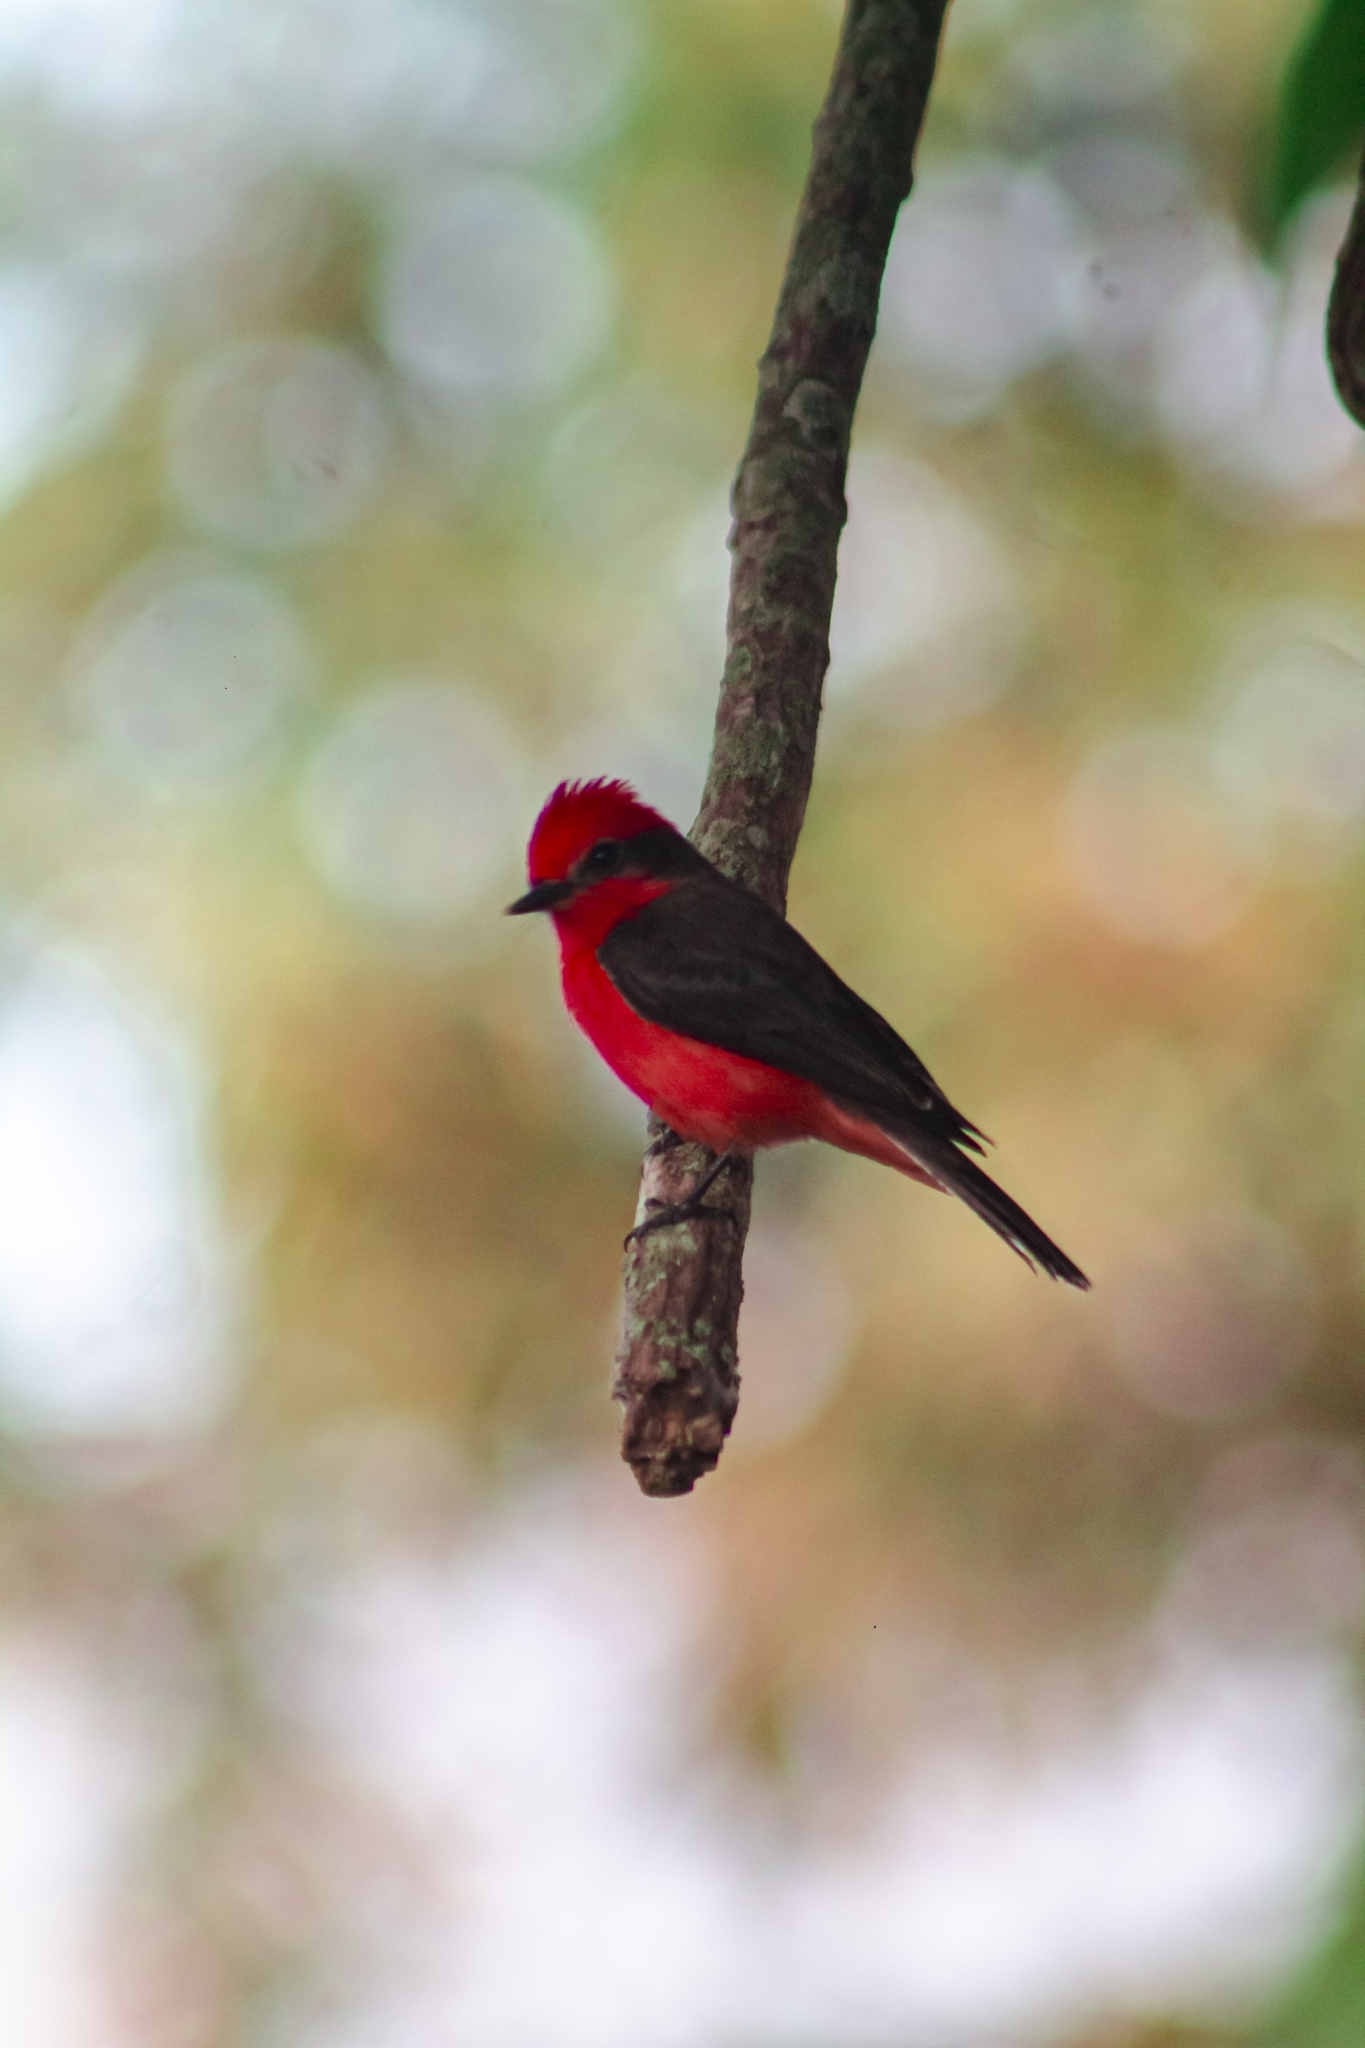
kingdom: Animalia
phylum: Chordata
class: Aves
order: Passeriformes
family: Tyrannidae
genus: Pyrocephalus
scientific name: Pyrocephalus rubinus
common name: Vermilion flycatcher
